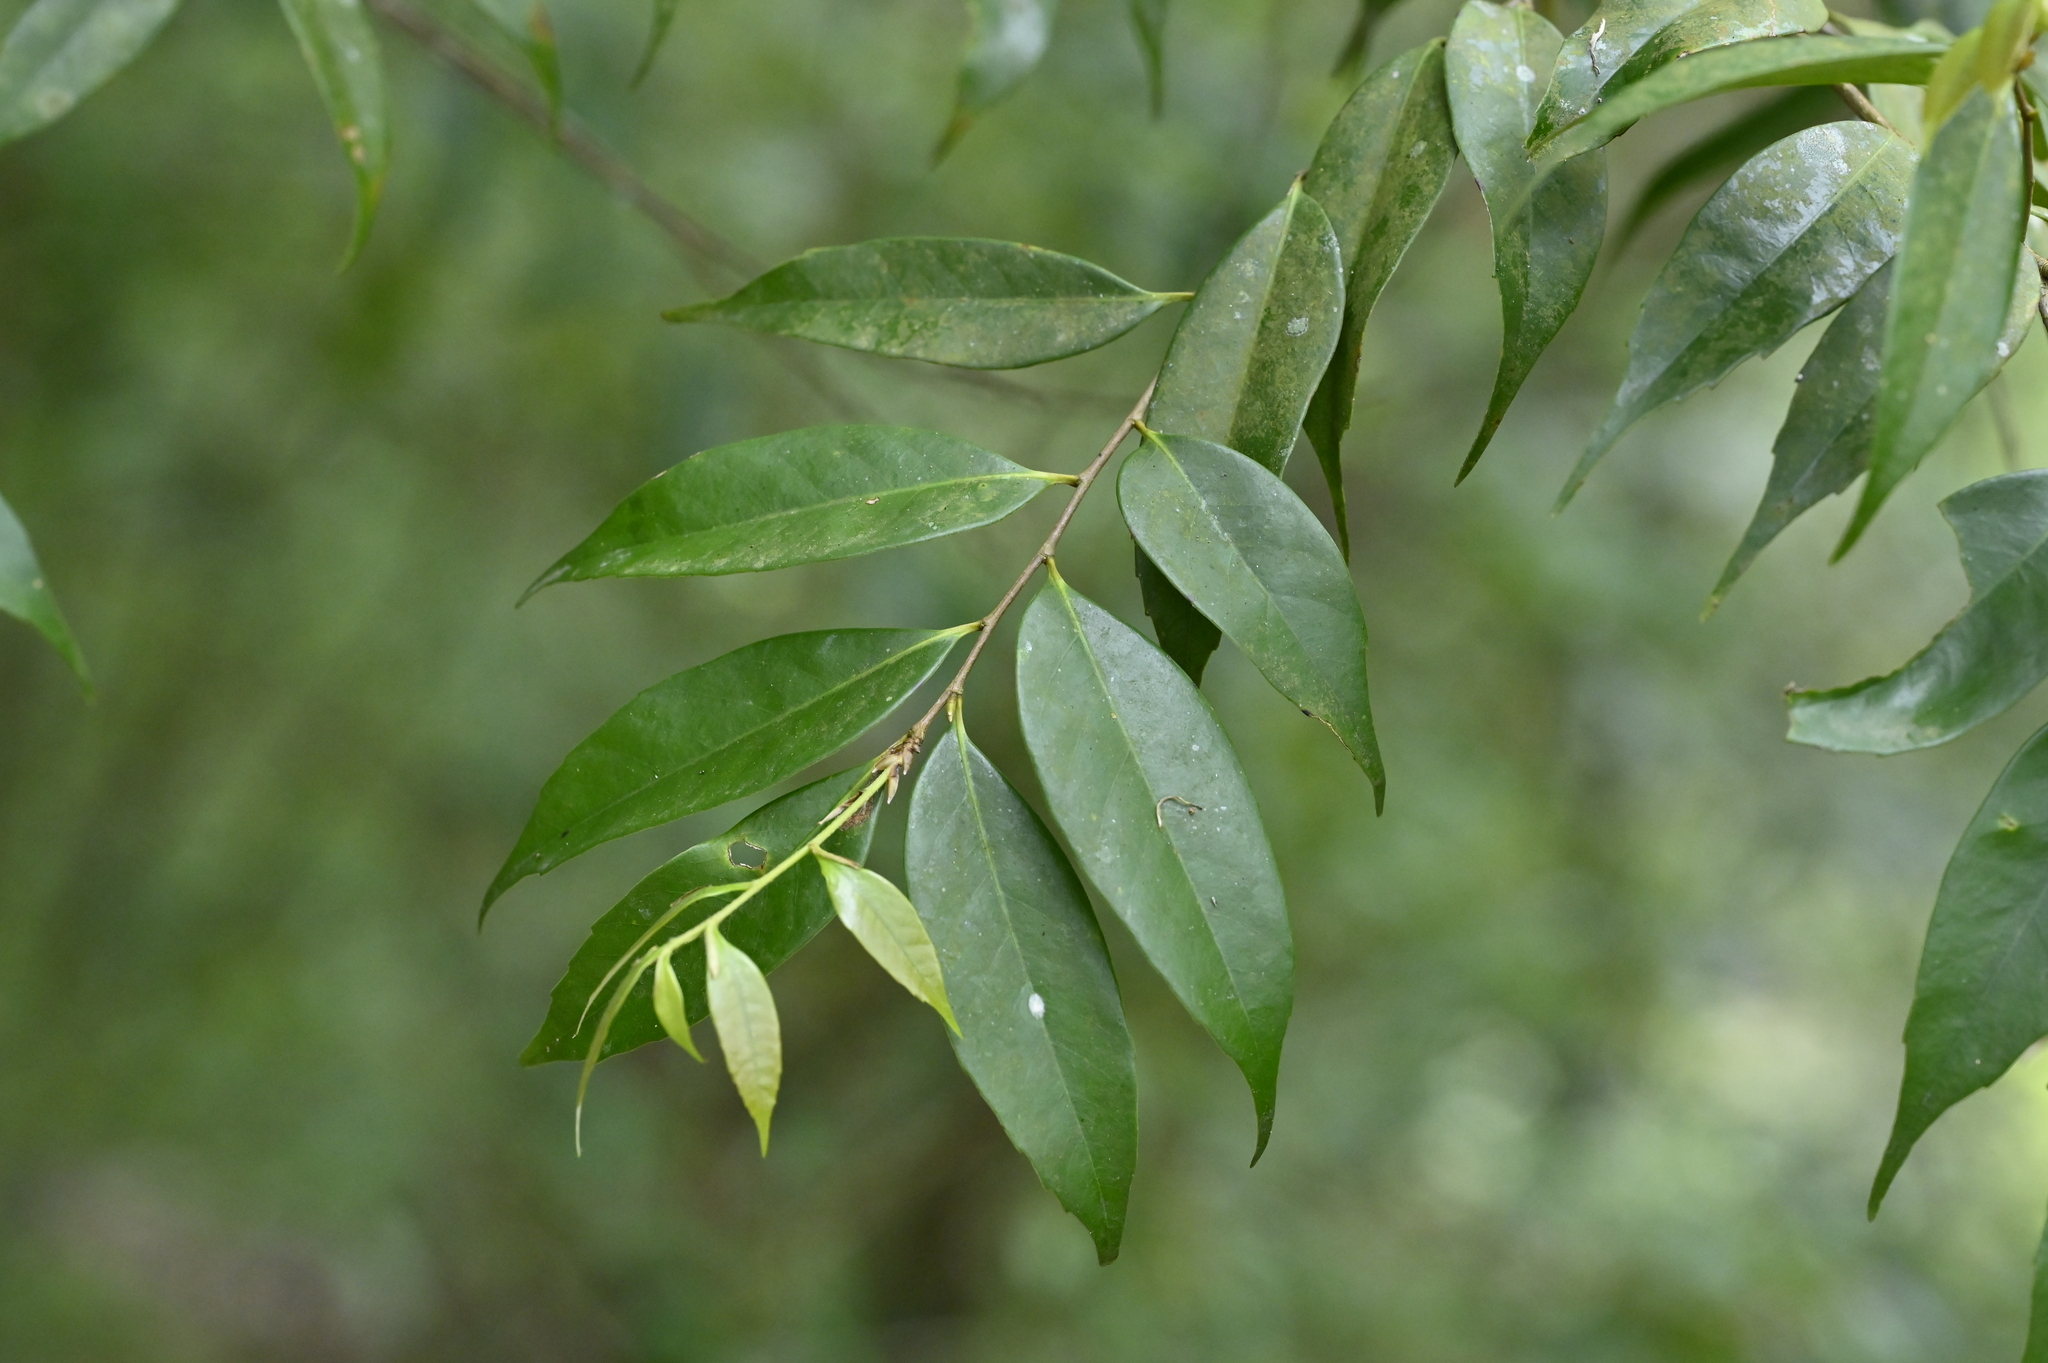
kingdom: Plantae
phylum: Tracheophyta
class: Magnoliopsida
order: Fagales
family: Fagaceae
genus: Lithocarpus
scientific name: Lithocarpus uraianus
